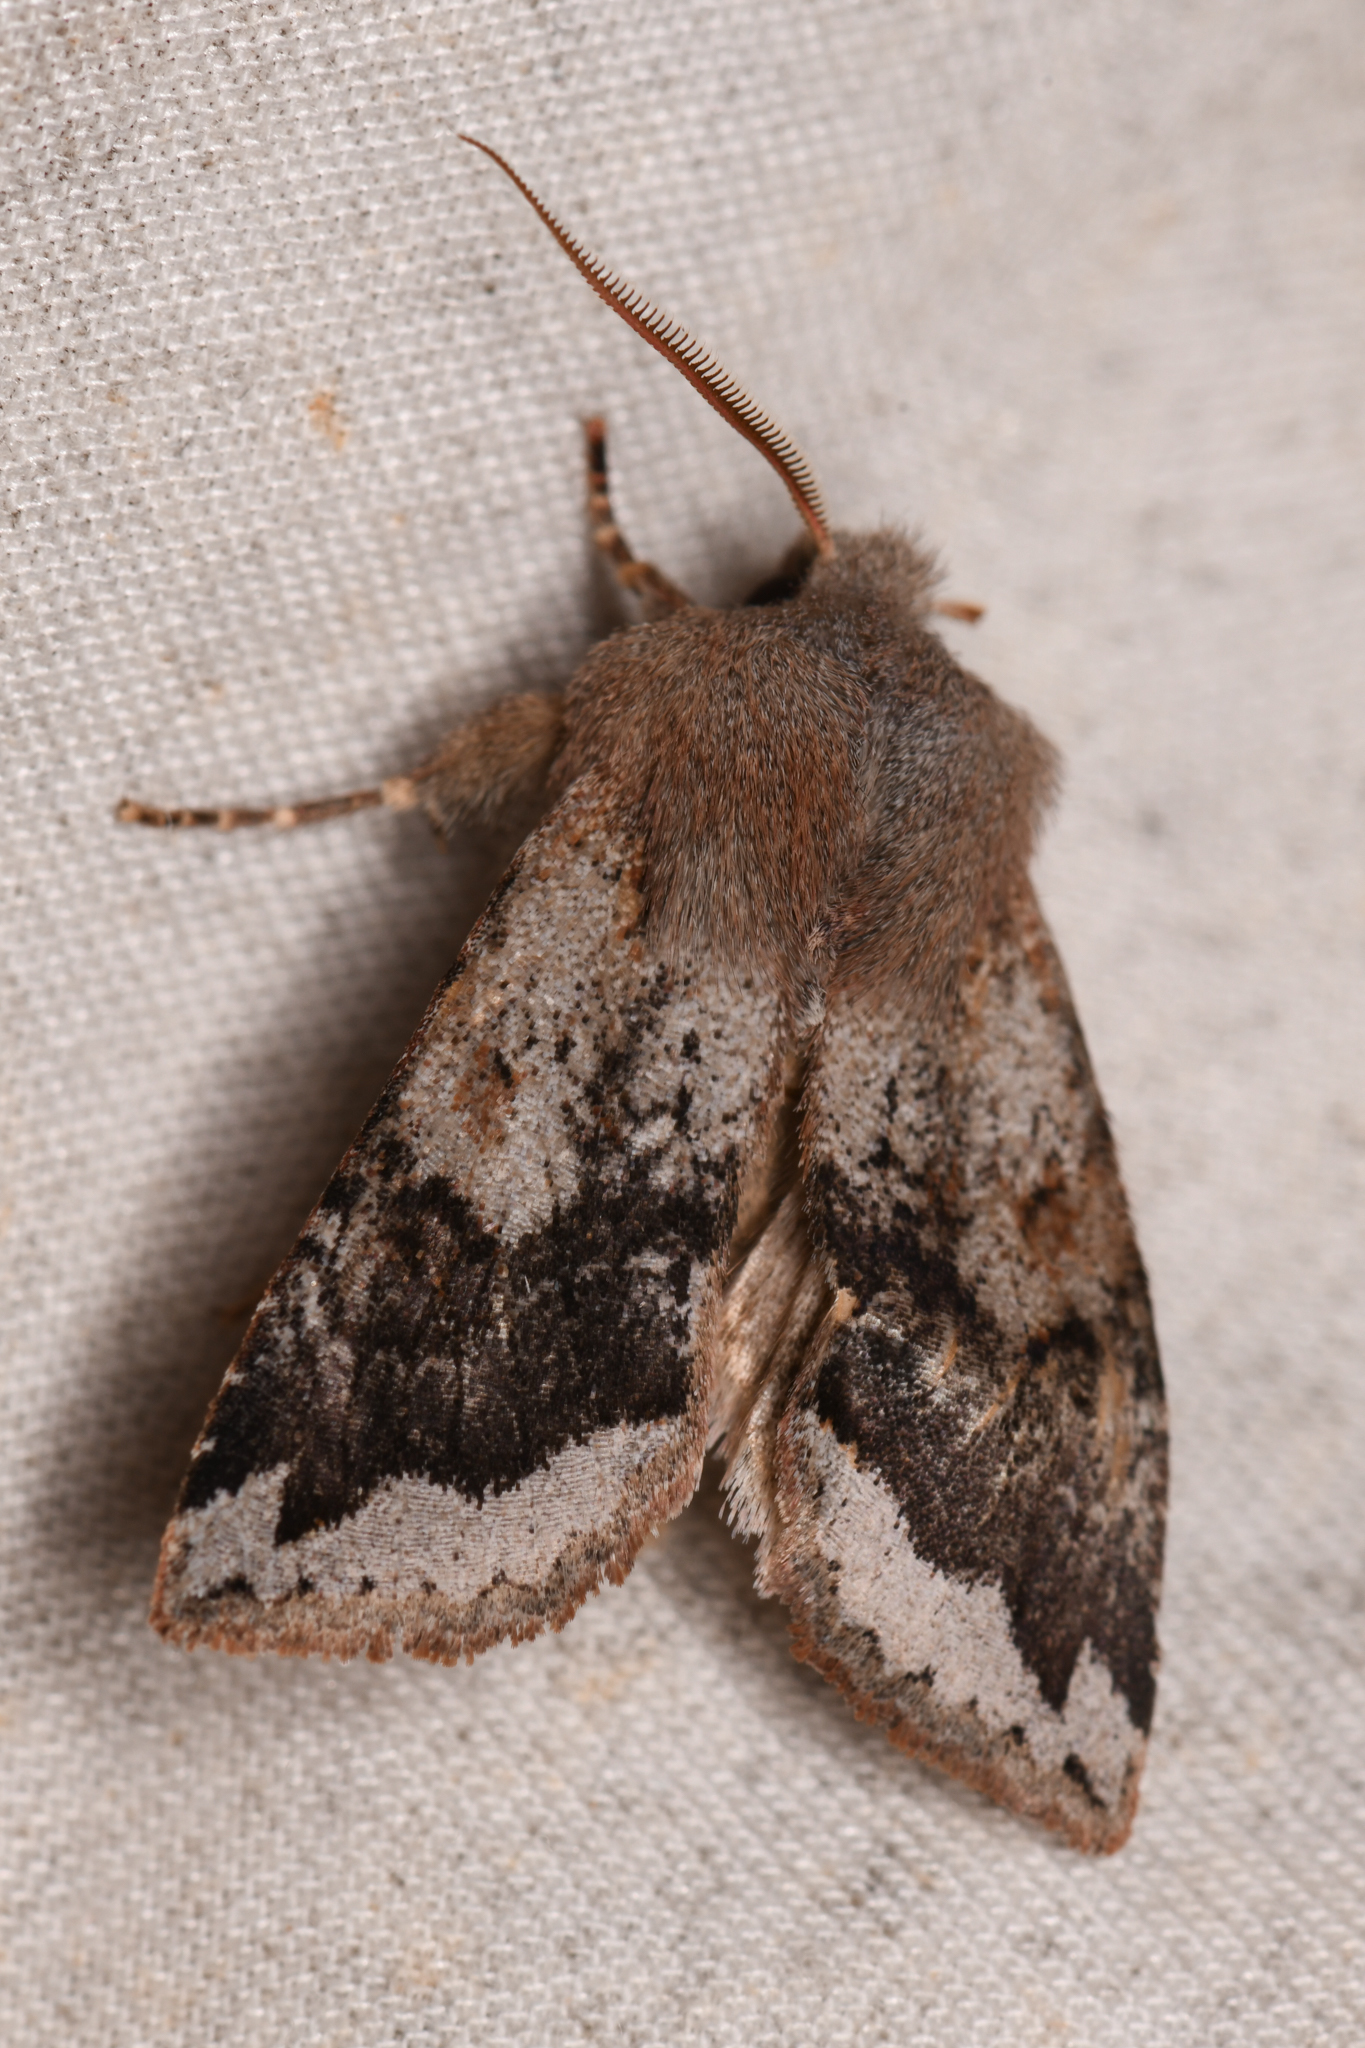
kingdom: Animalia
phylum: Arthropoda
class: Insecta
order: Lepidoptera
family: Noctuidae
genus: Orthosia
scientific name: Orthosia erythrolita
